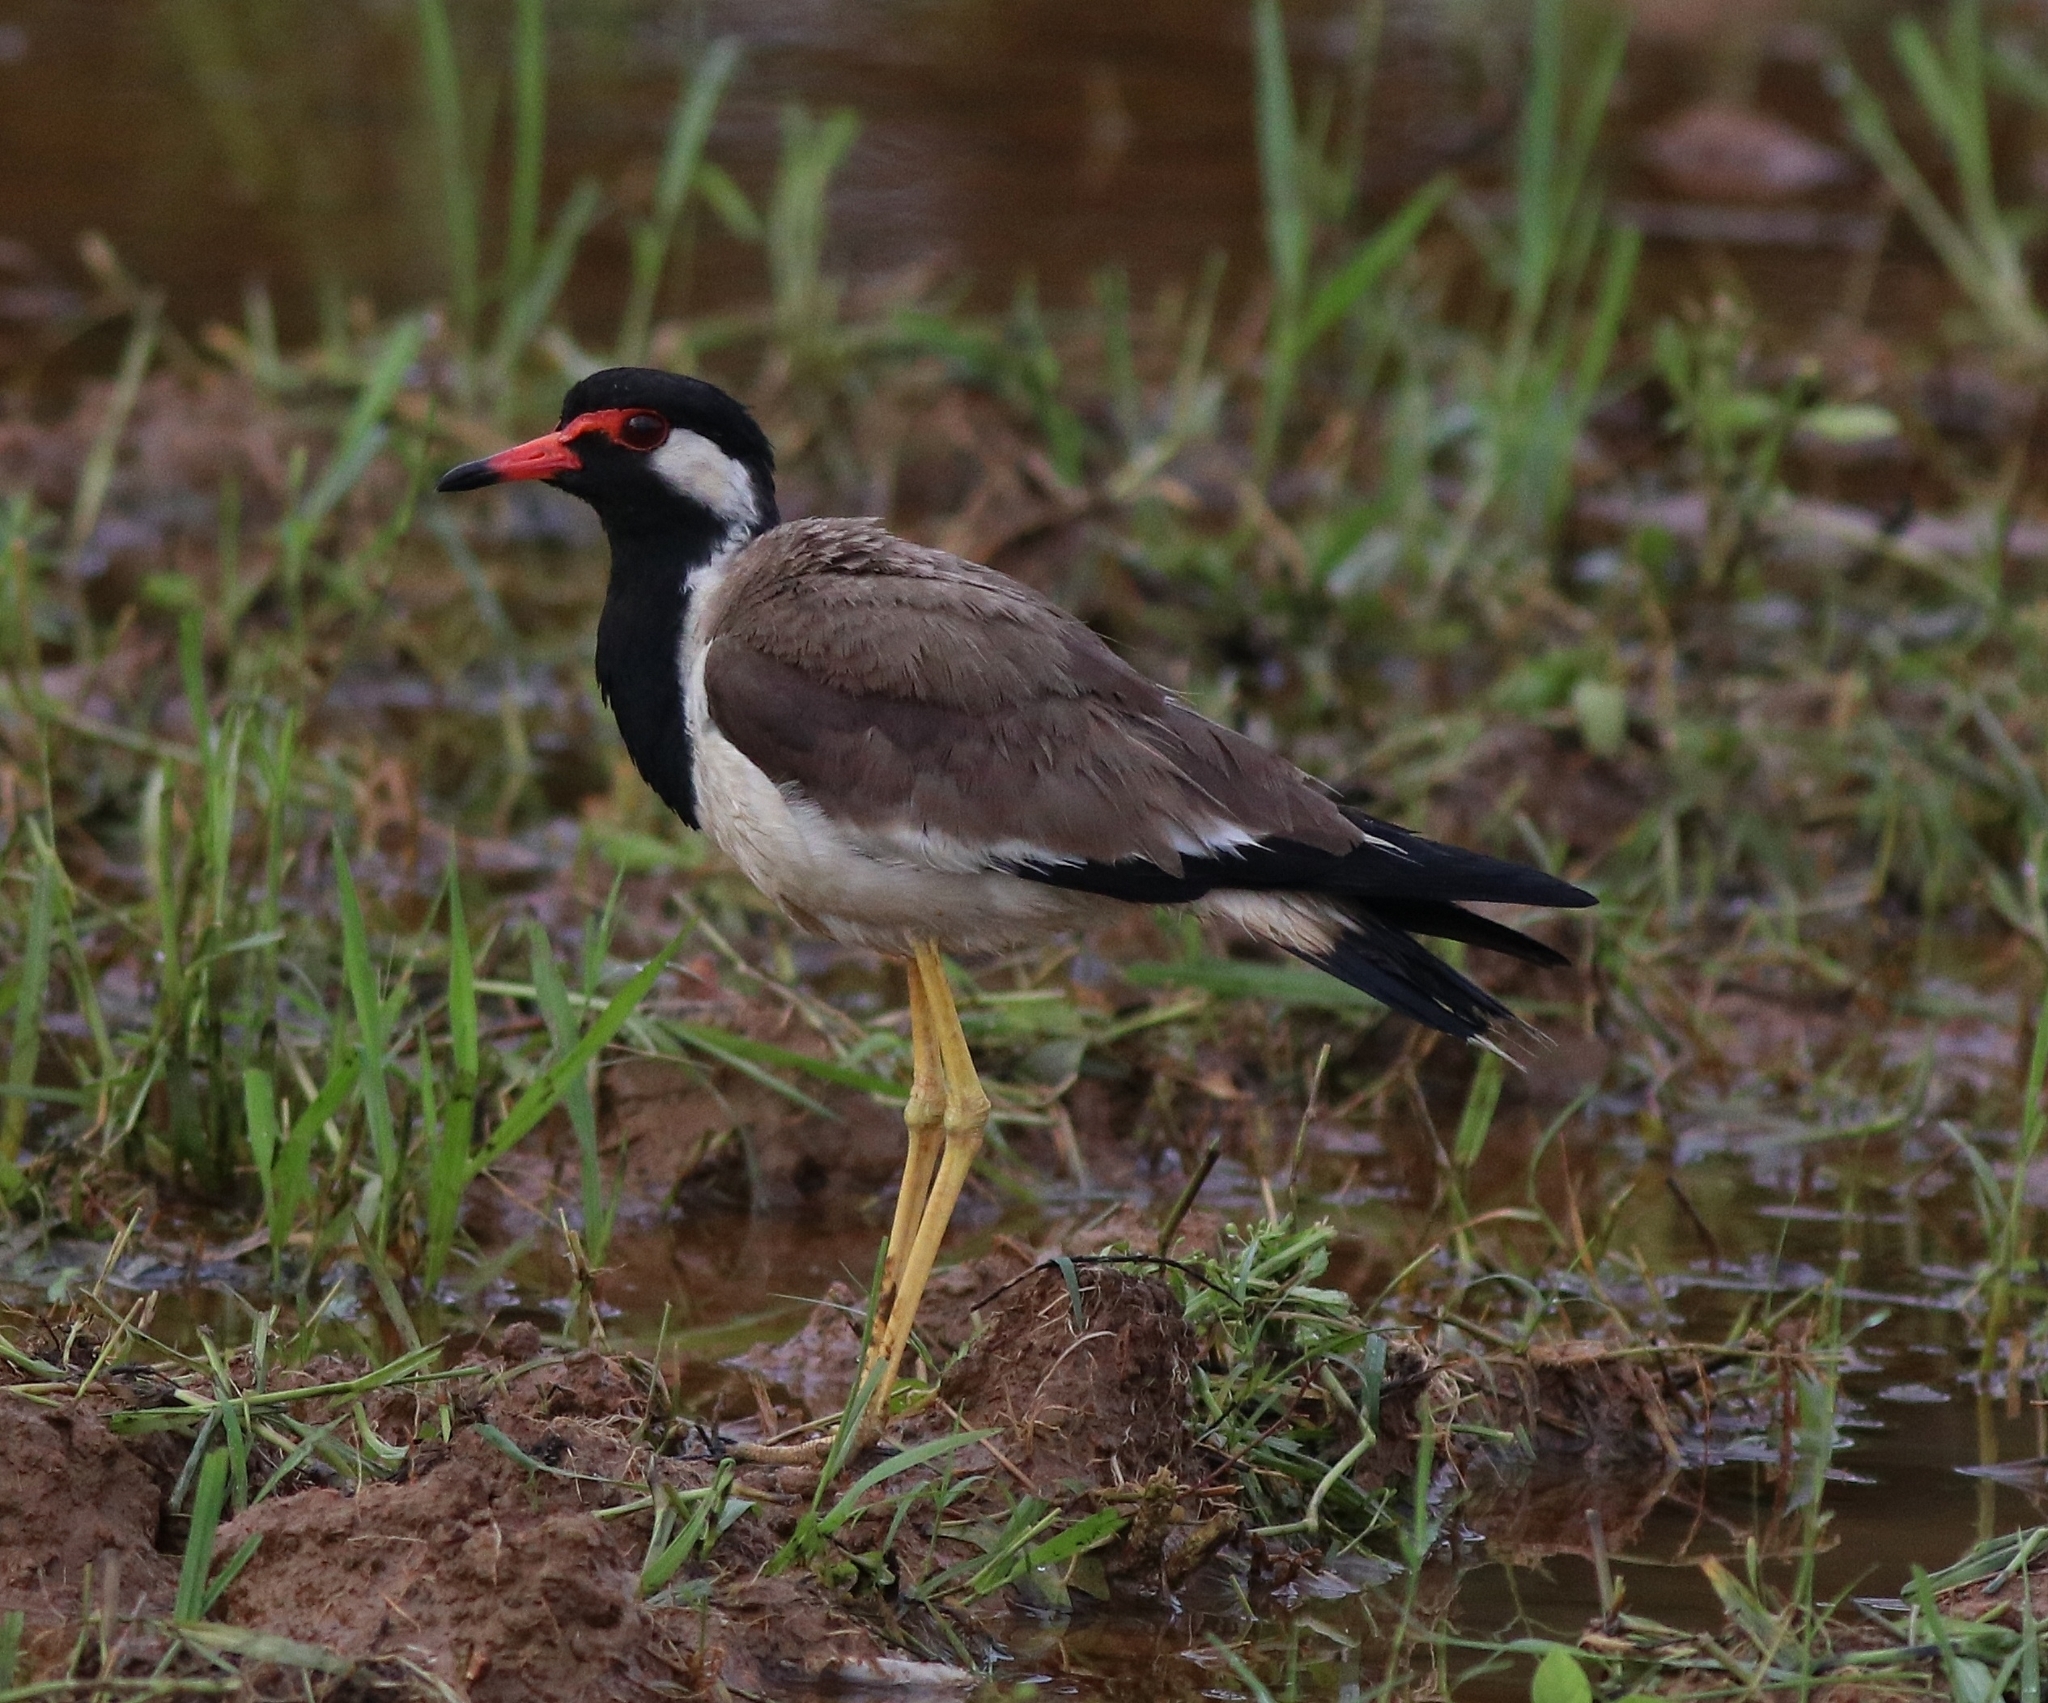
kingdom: Animalia
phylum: Chordata
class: Aves
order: Charadriiformes
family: Charadriidae
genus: Vanellus
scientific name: Vanellus indicus
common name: Red-wattled lapwing
